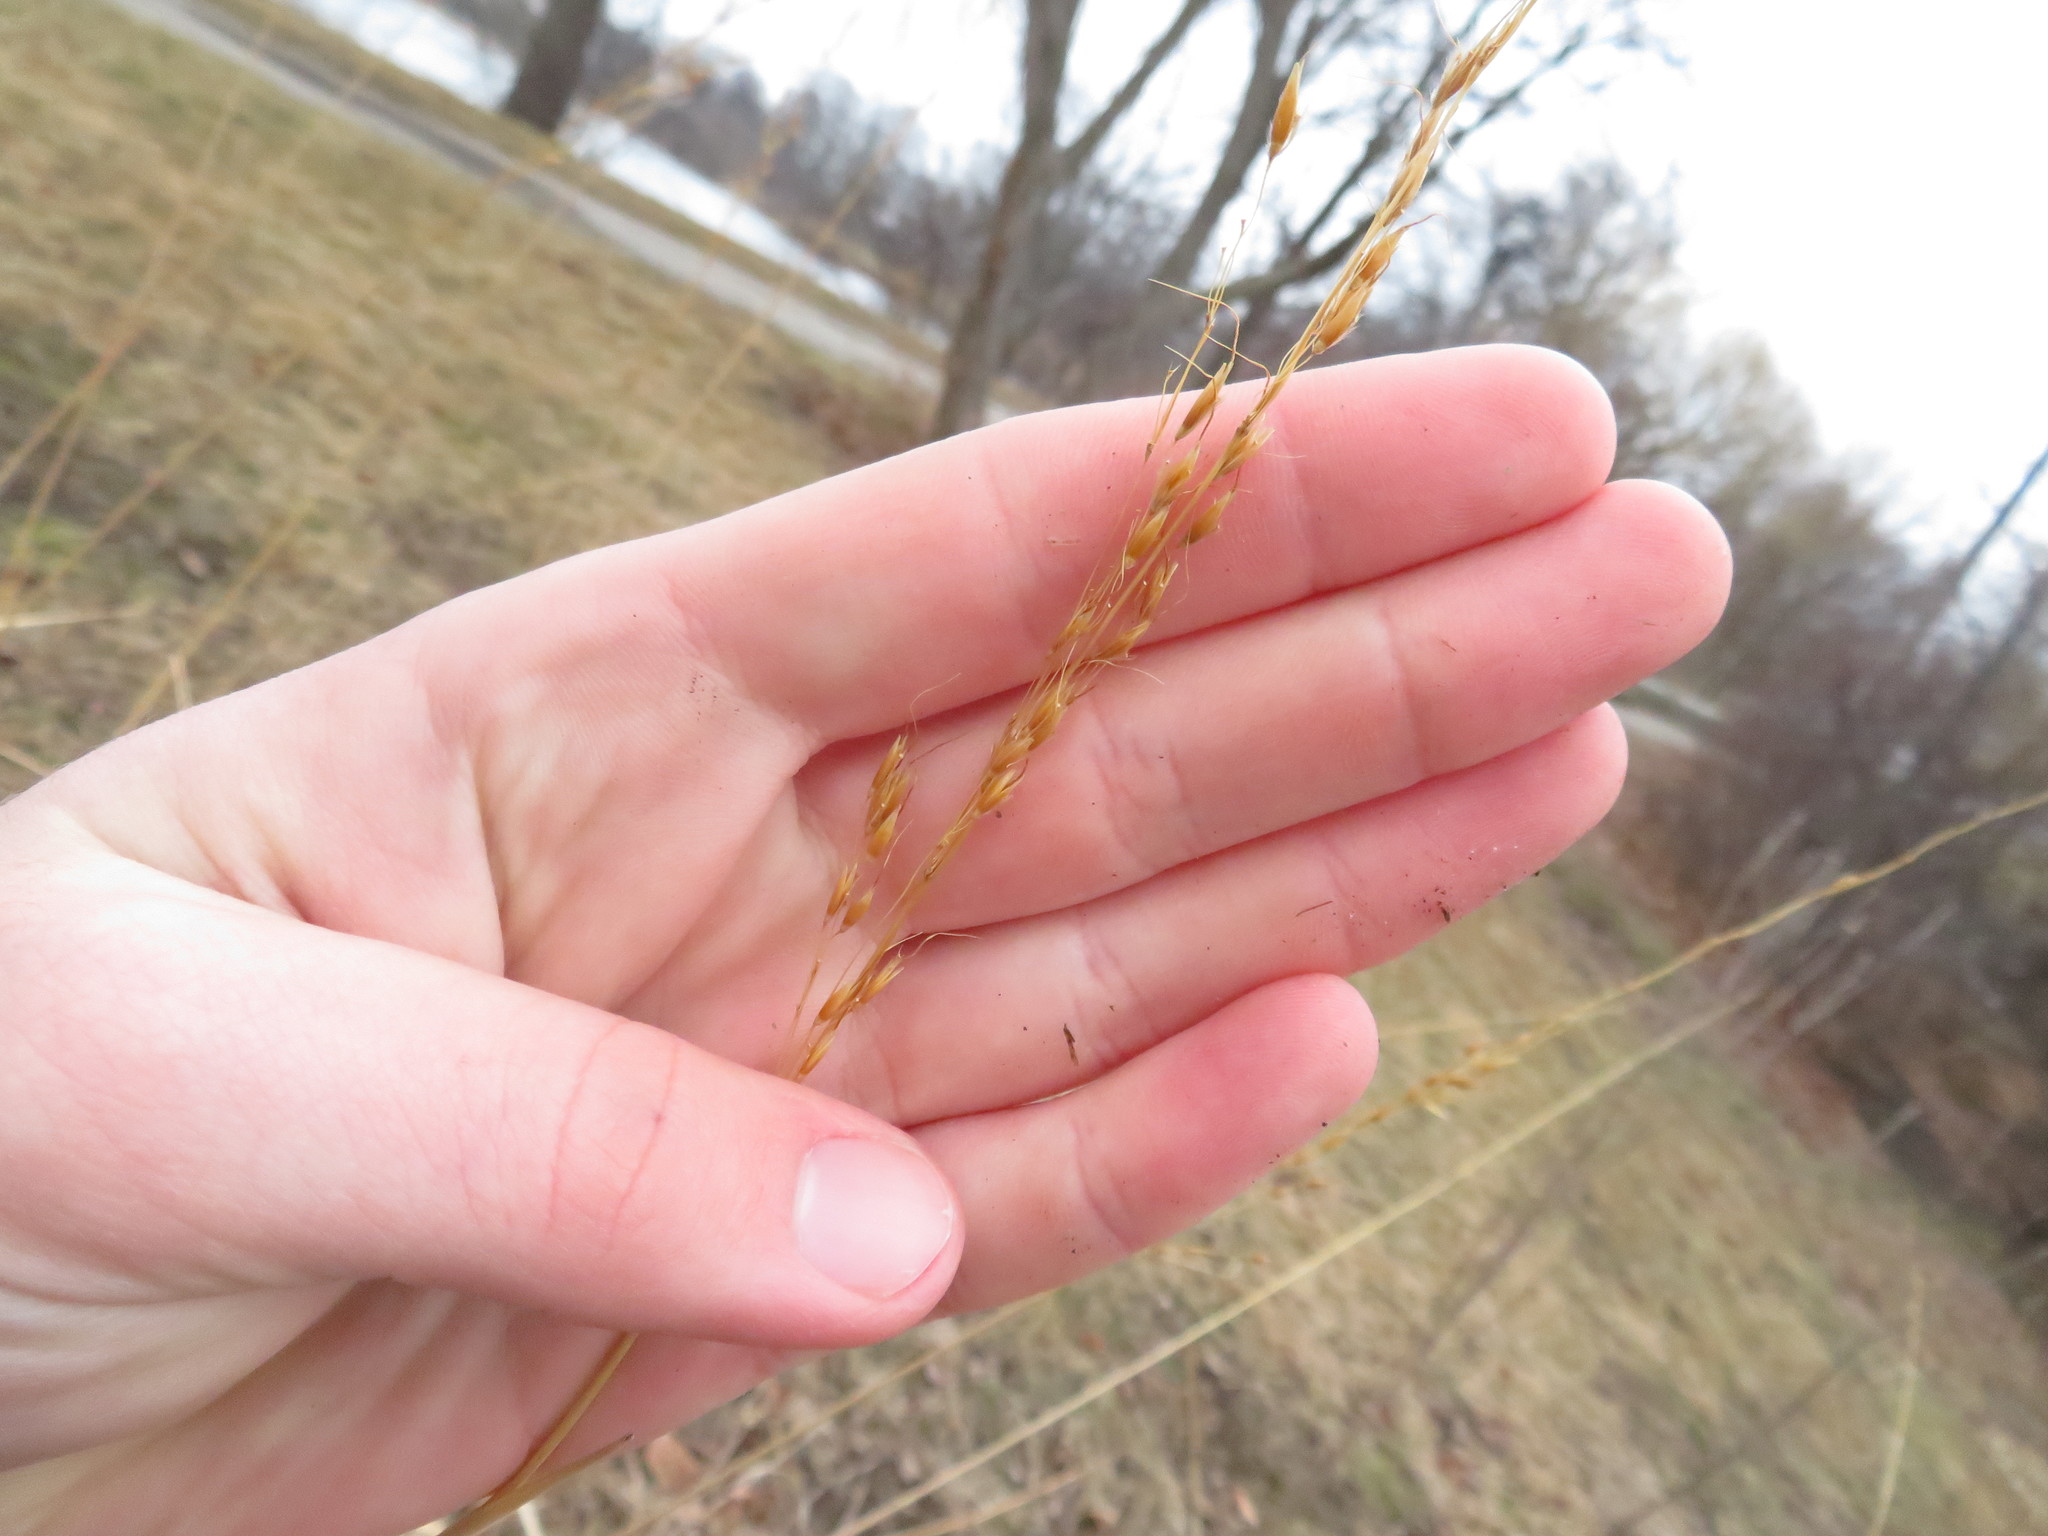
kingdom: Plantae
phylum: Tracheophyta
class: Liliopsida
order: Poales
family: Poaceae
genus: Sorghastrum
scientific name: Sorghastrum nutans
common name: Indian grass
